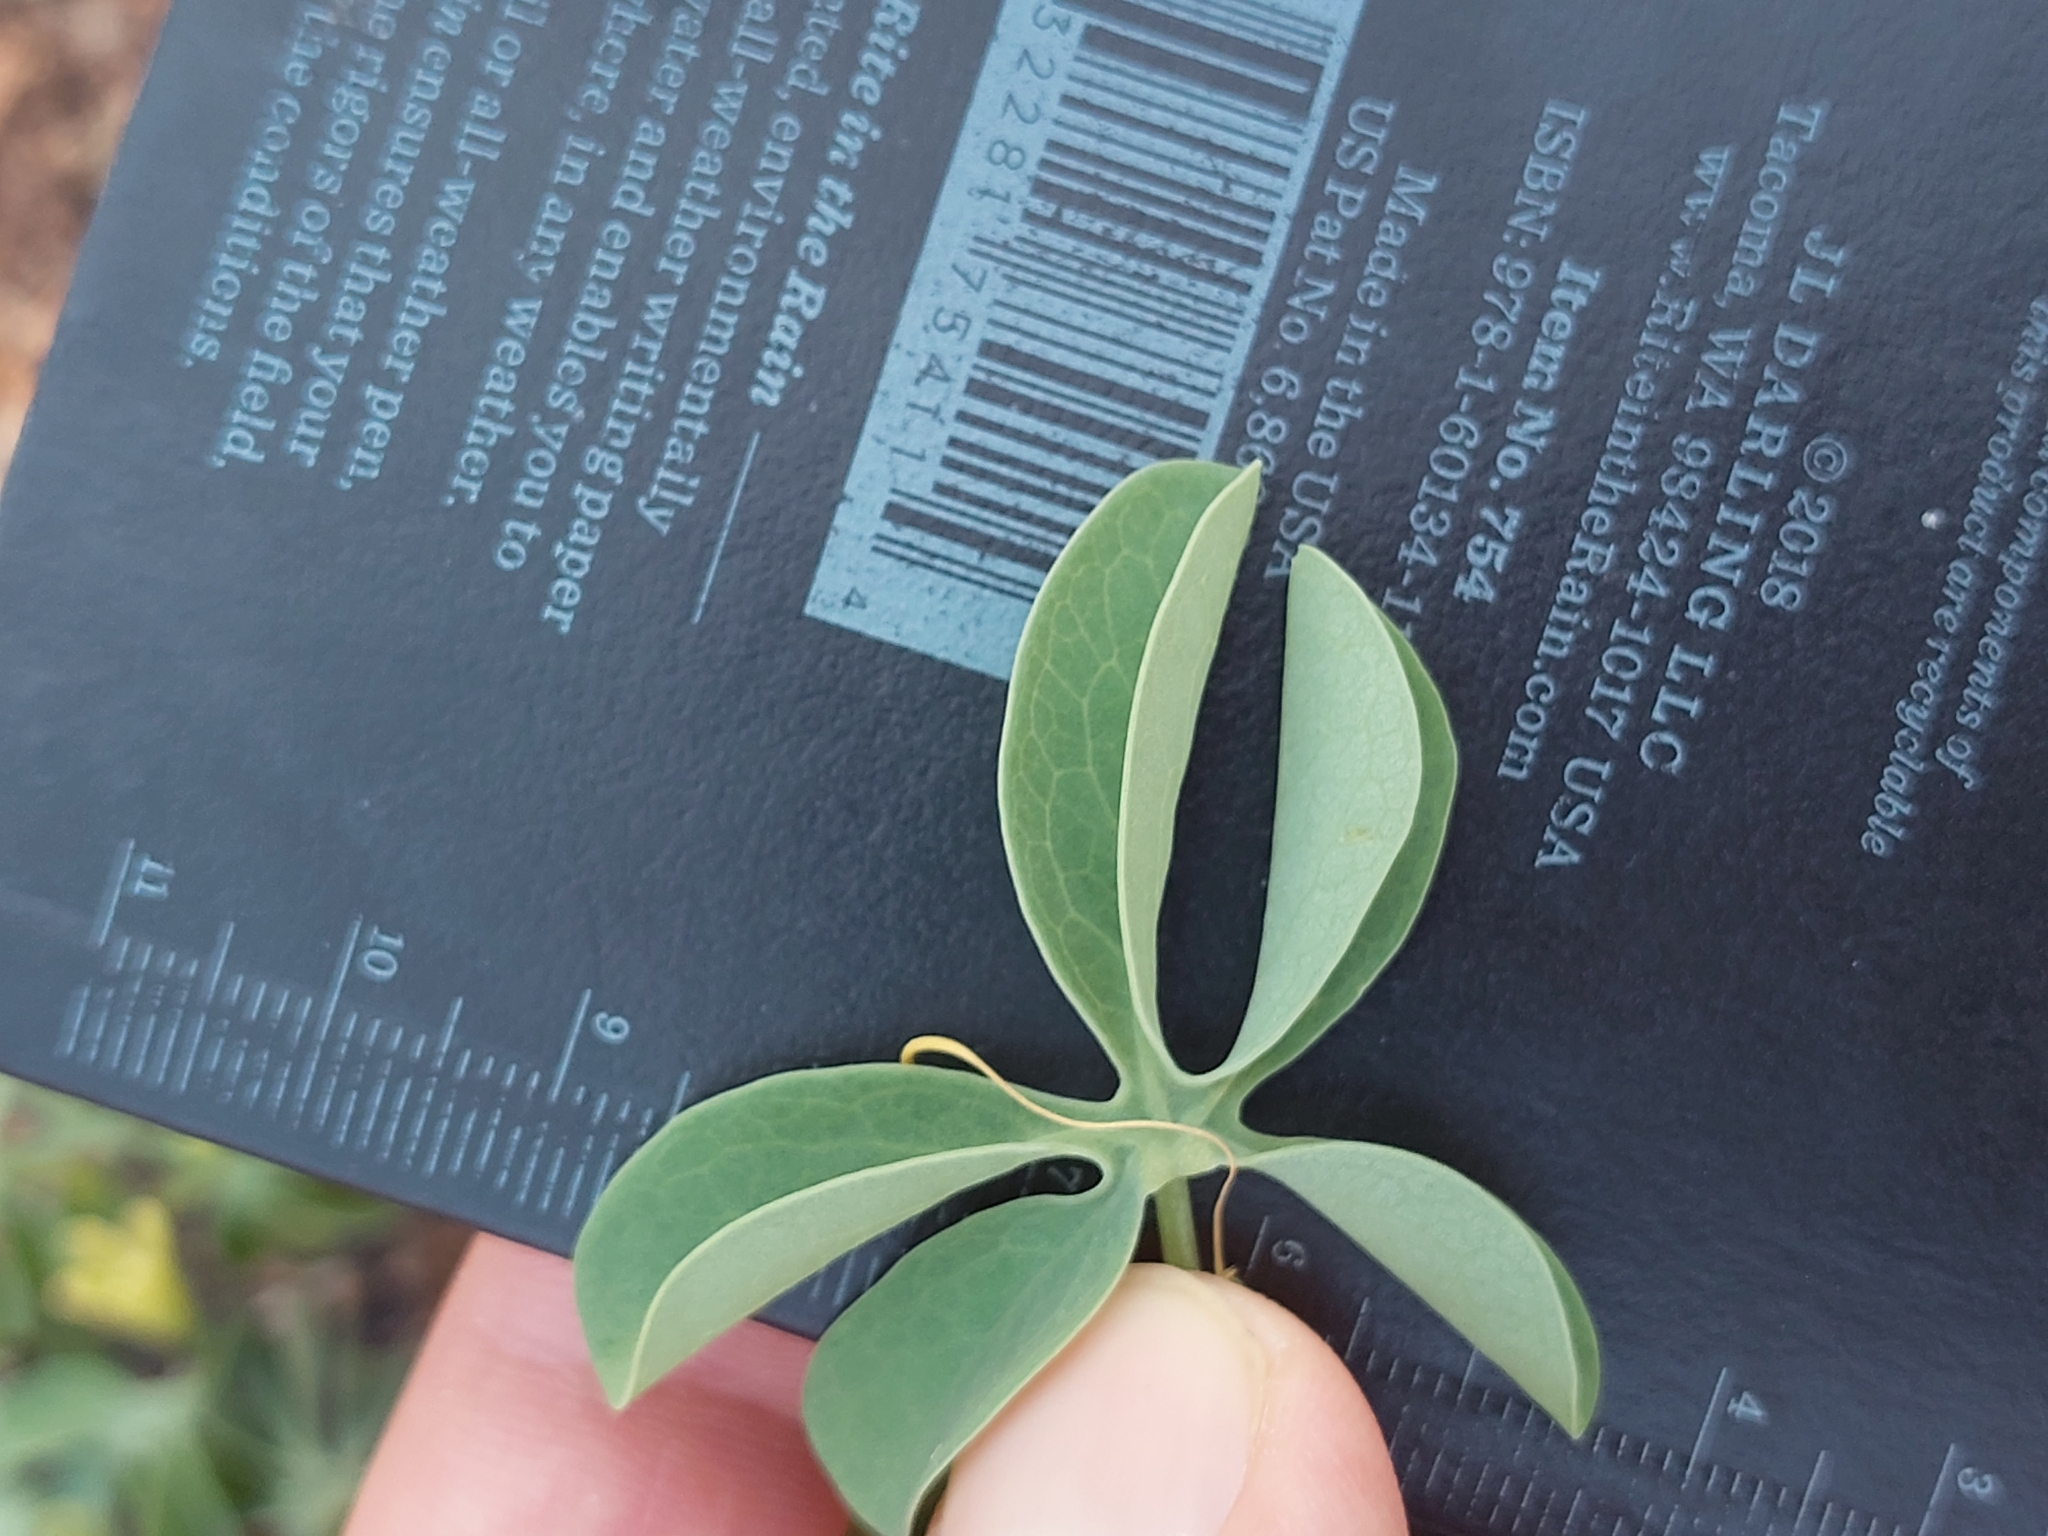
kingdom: Plantae
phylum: Tracheophyta
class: Magnoliopsida
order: Malpighiales
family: Passifloraceae
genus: Adenia
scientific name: Adenia glauca
